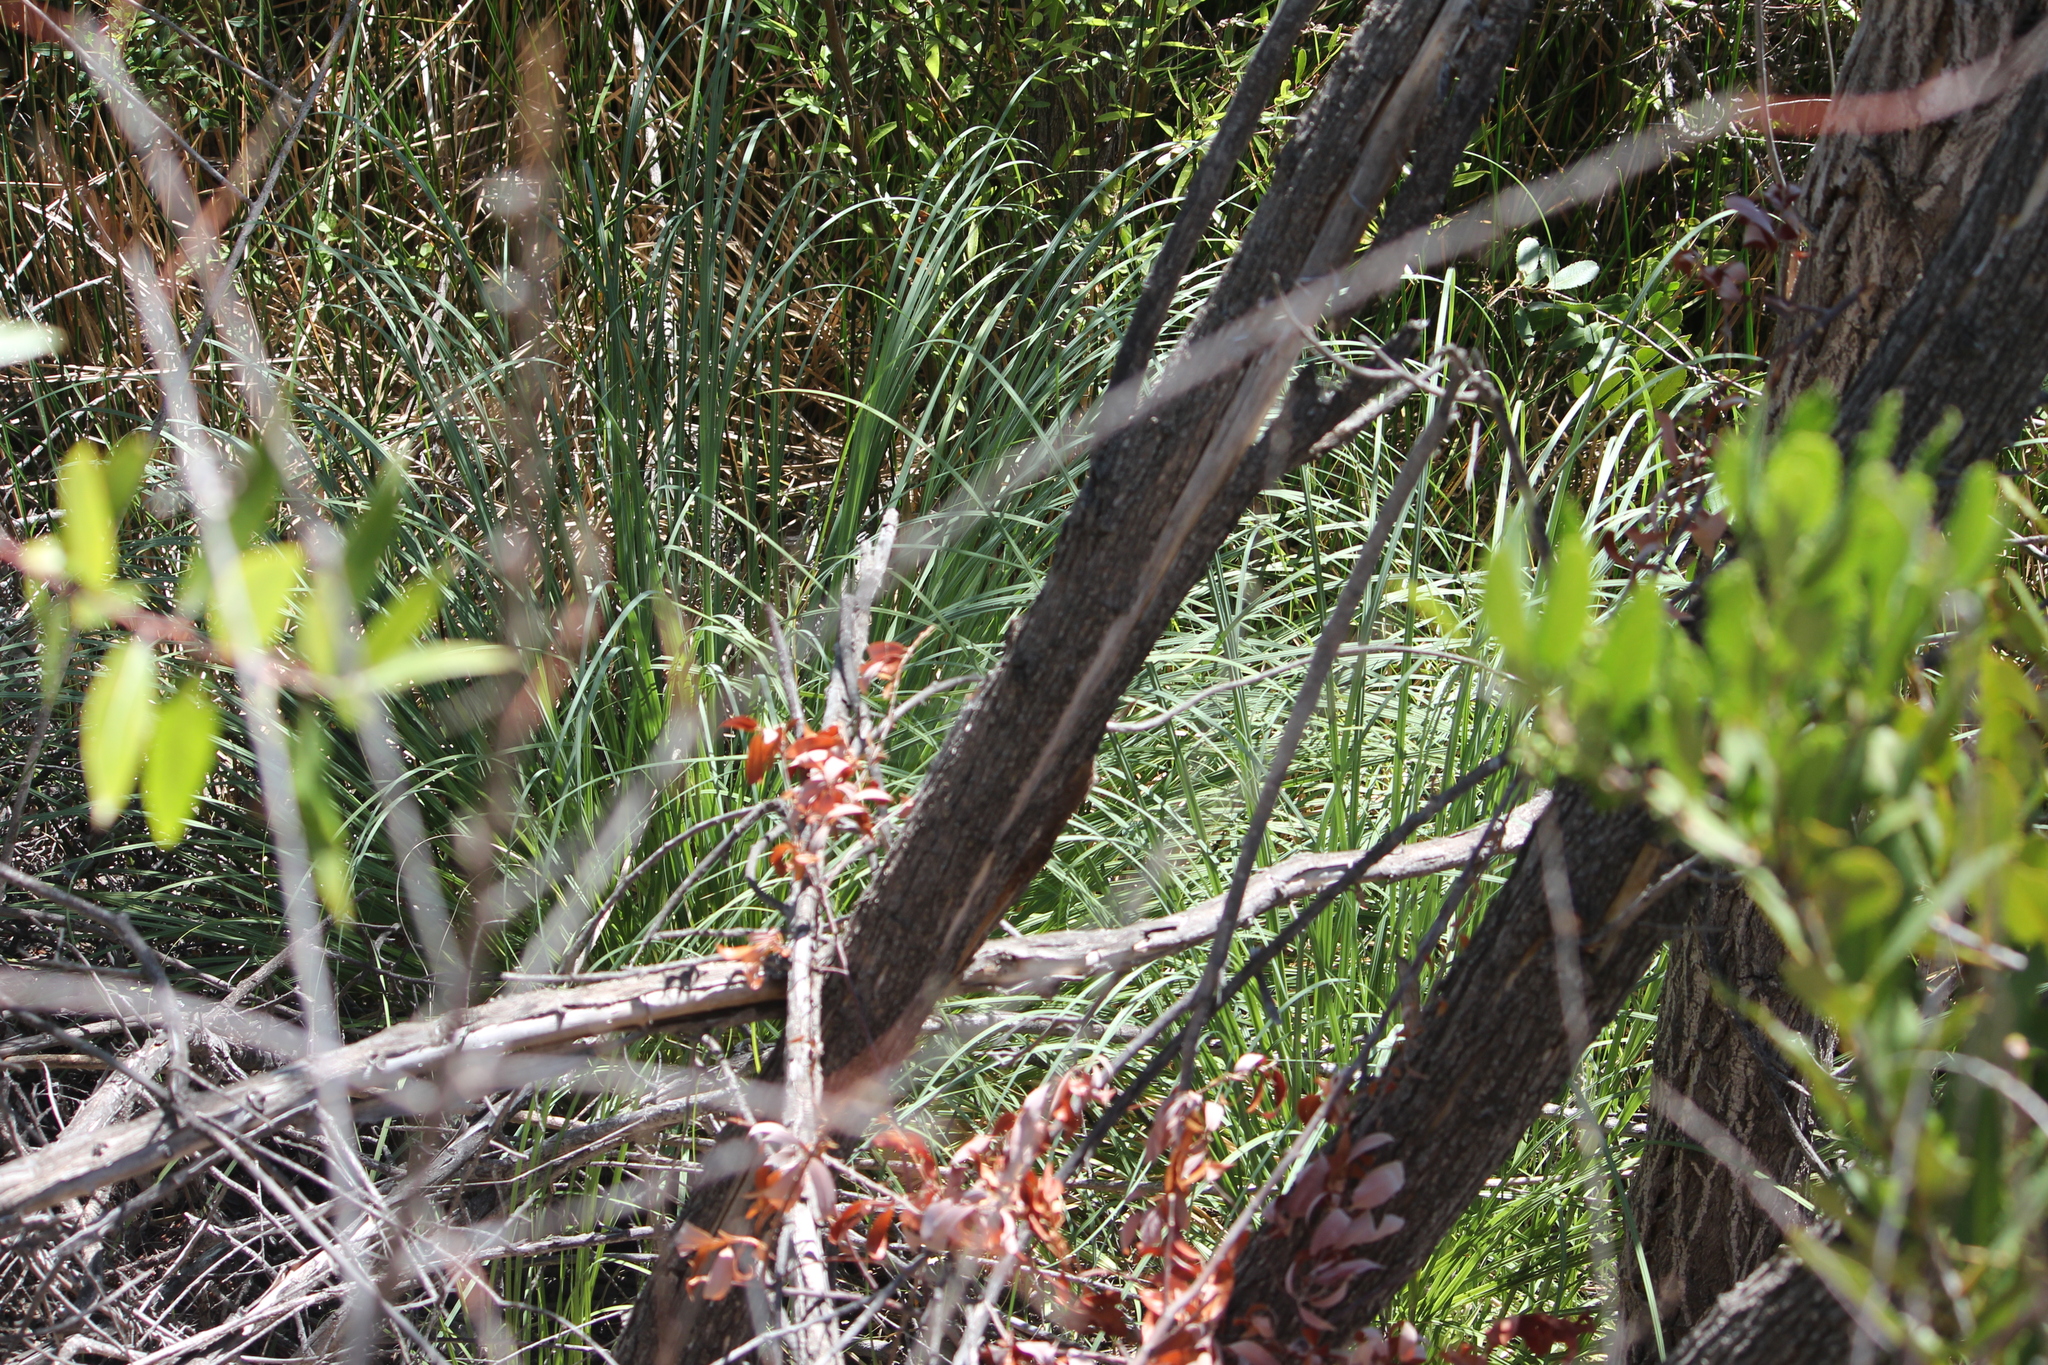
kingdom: Plantae
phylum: Tracheophyta
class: Liliopsida
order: Poales
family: Poaceae
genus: Cortaderia
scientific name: Cortaderia selloana
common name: Uruguayan pampas grass
